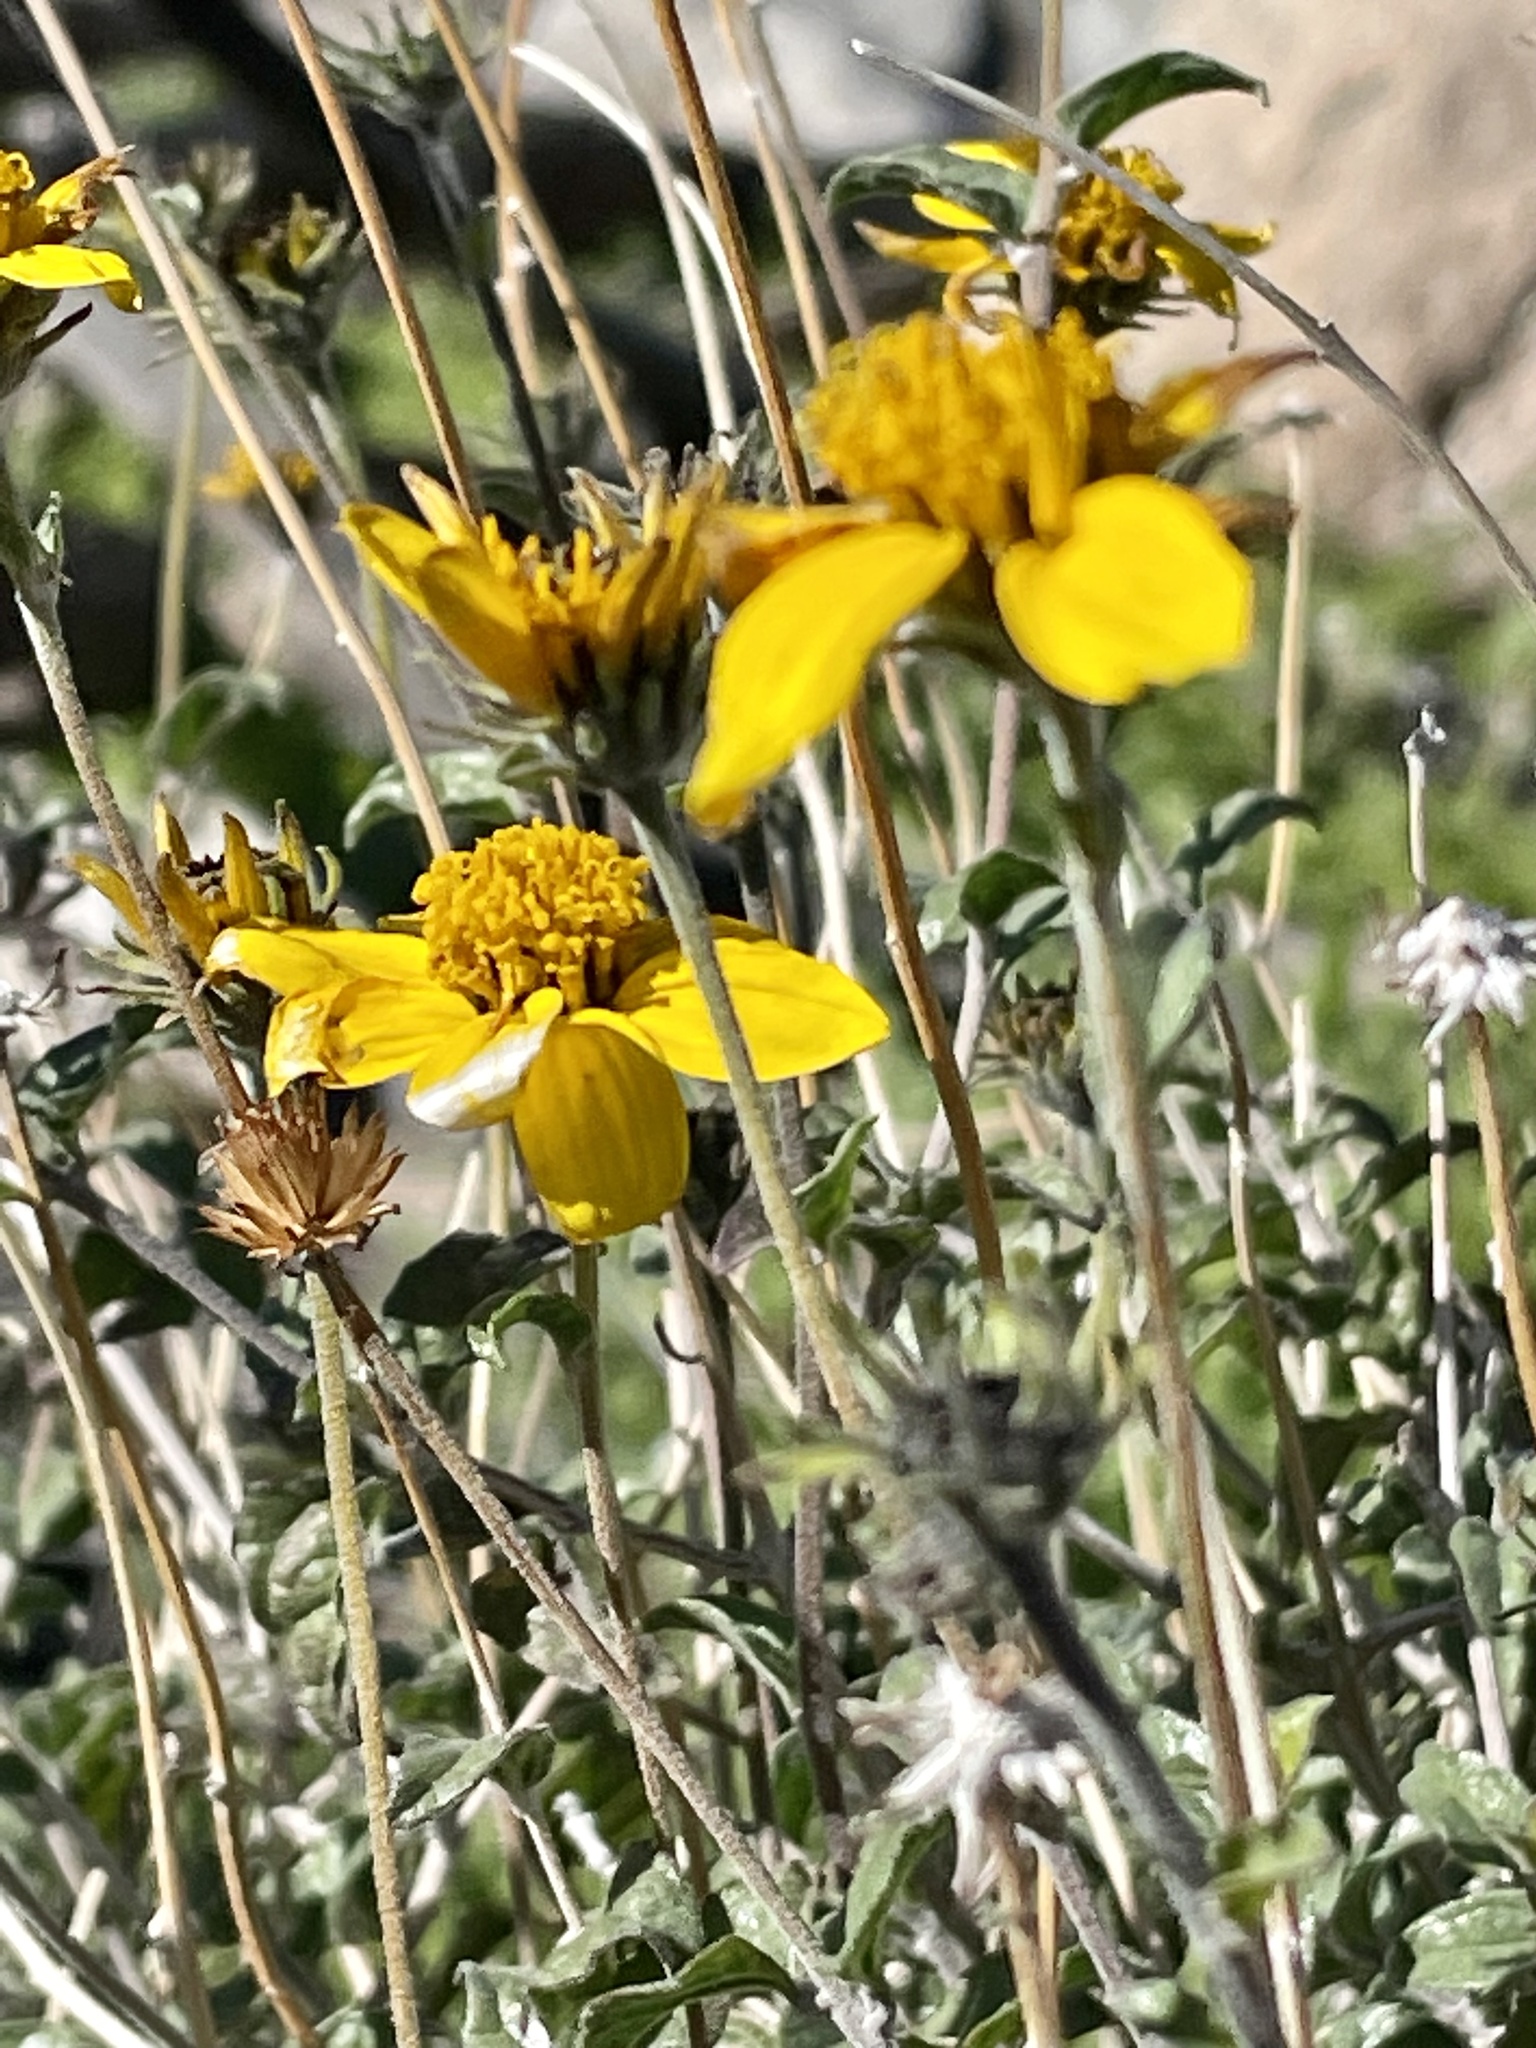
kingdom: Plantae
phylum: Tracheophyta
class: Magnoliopsida
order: Asterales
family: Asteraceae
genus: Bahiopsis
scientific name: Bahiopsis parishii
